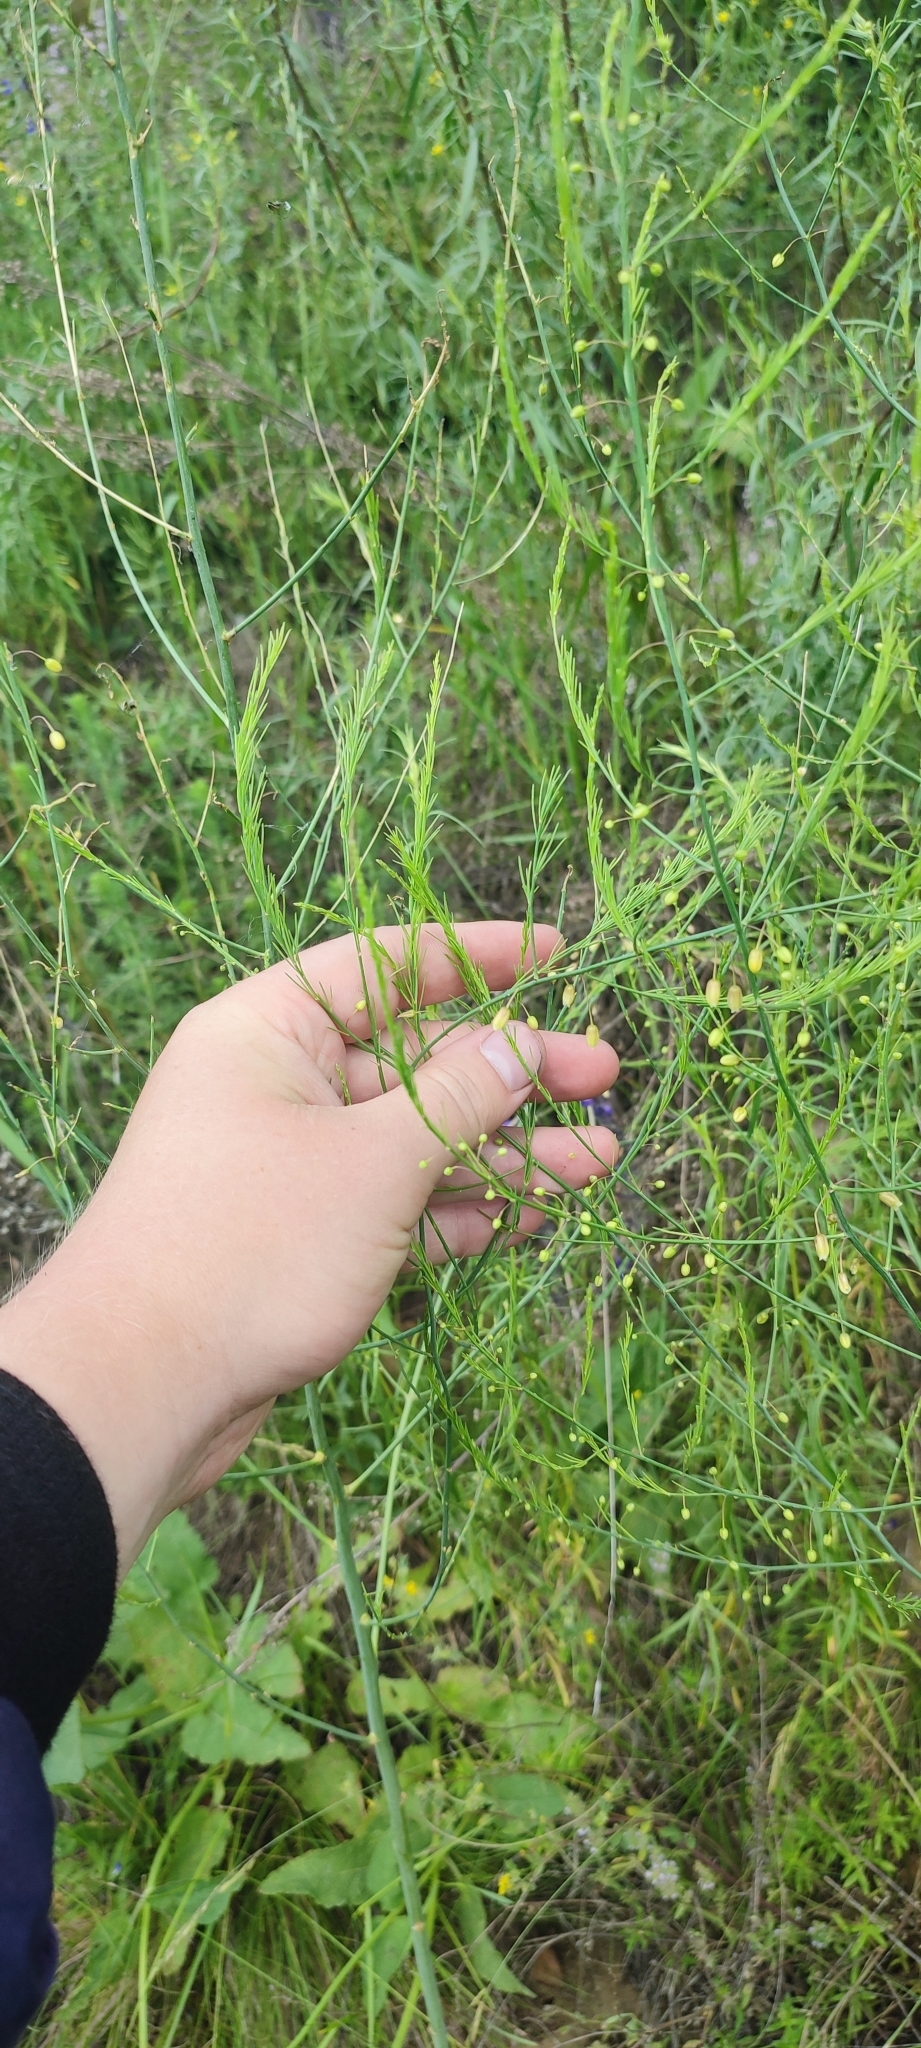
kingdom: Plantae
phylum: Tracheophyta
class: Liliopsida
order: Asparagales
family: Asparagaceae
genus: Asparagus
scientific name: Asparagus officinalis
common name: Garden asparagus
